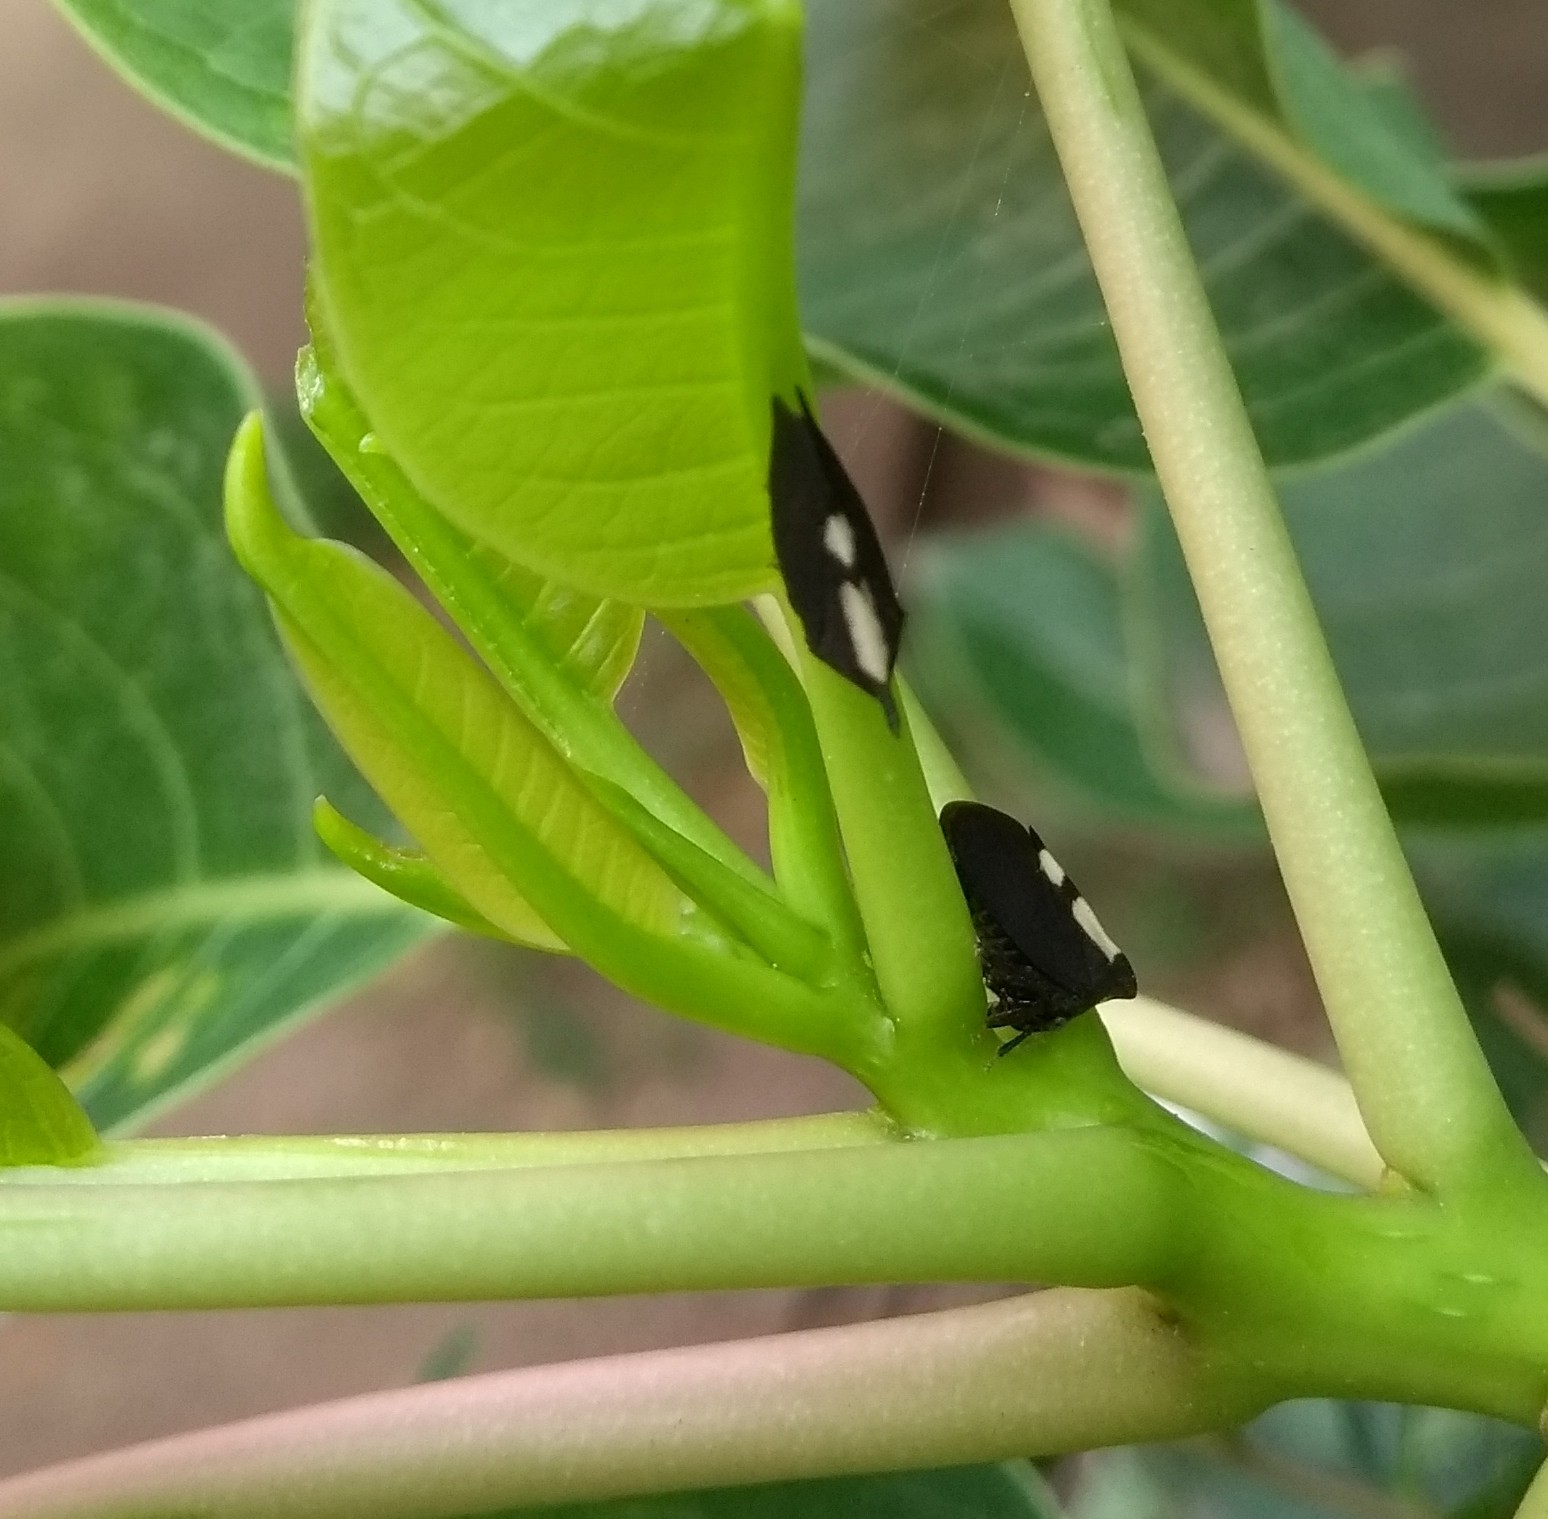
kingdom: Animalia
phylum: Arthropoda
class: Insecta
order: Hemiptera
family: Membracidae
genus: Enchenopa
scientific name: Enchenopa
